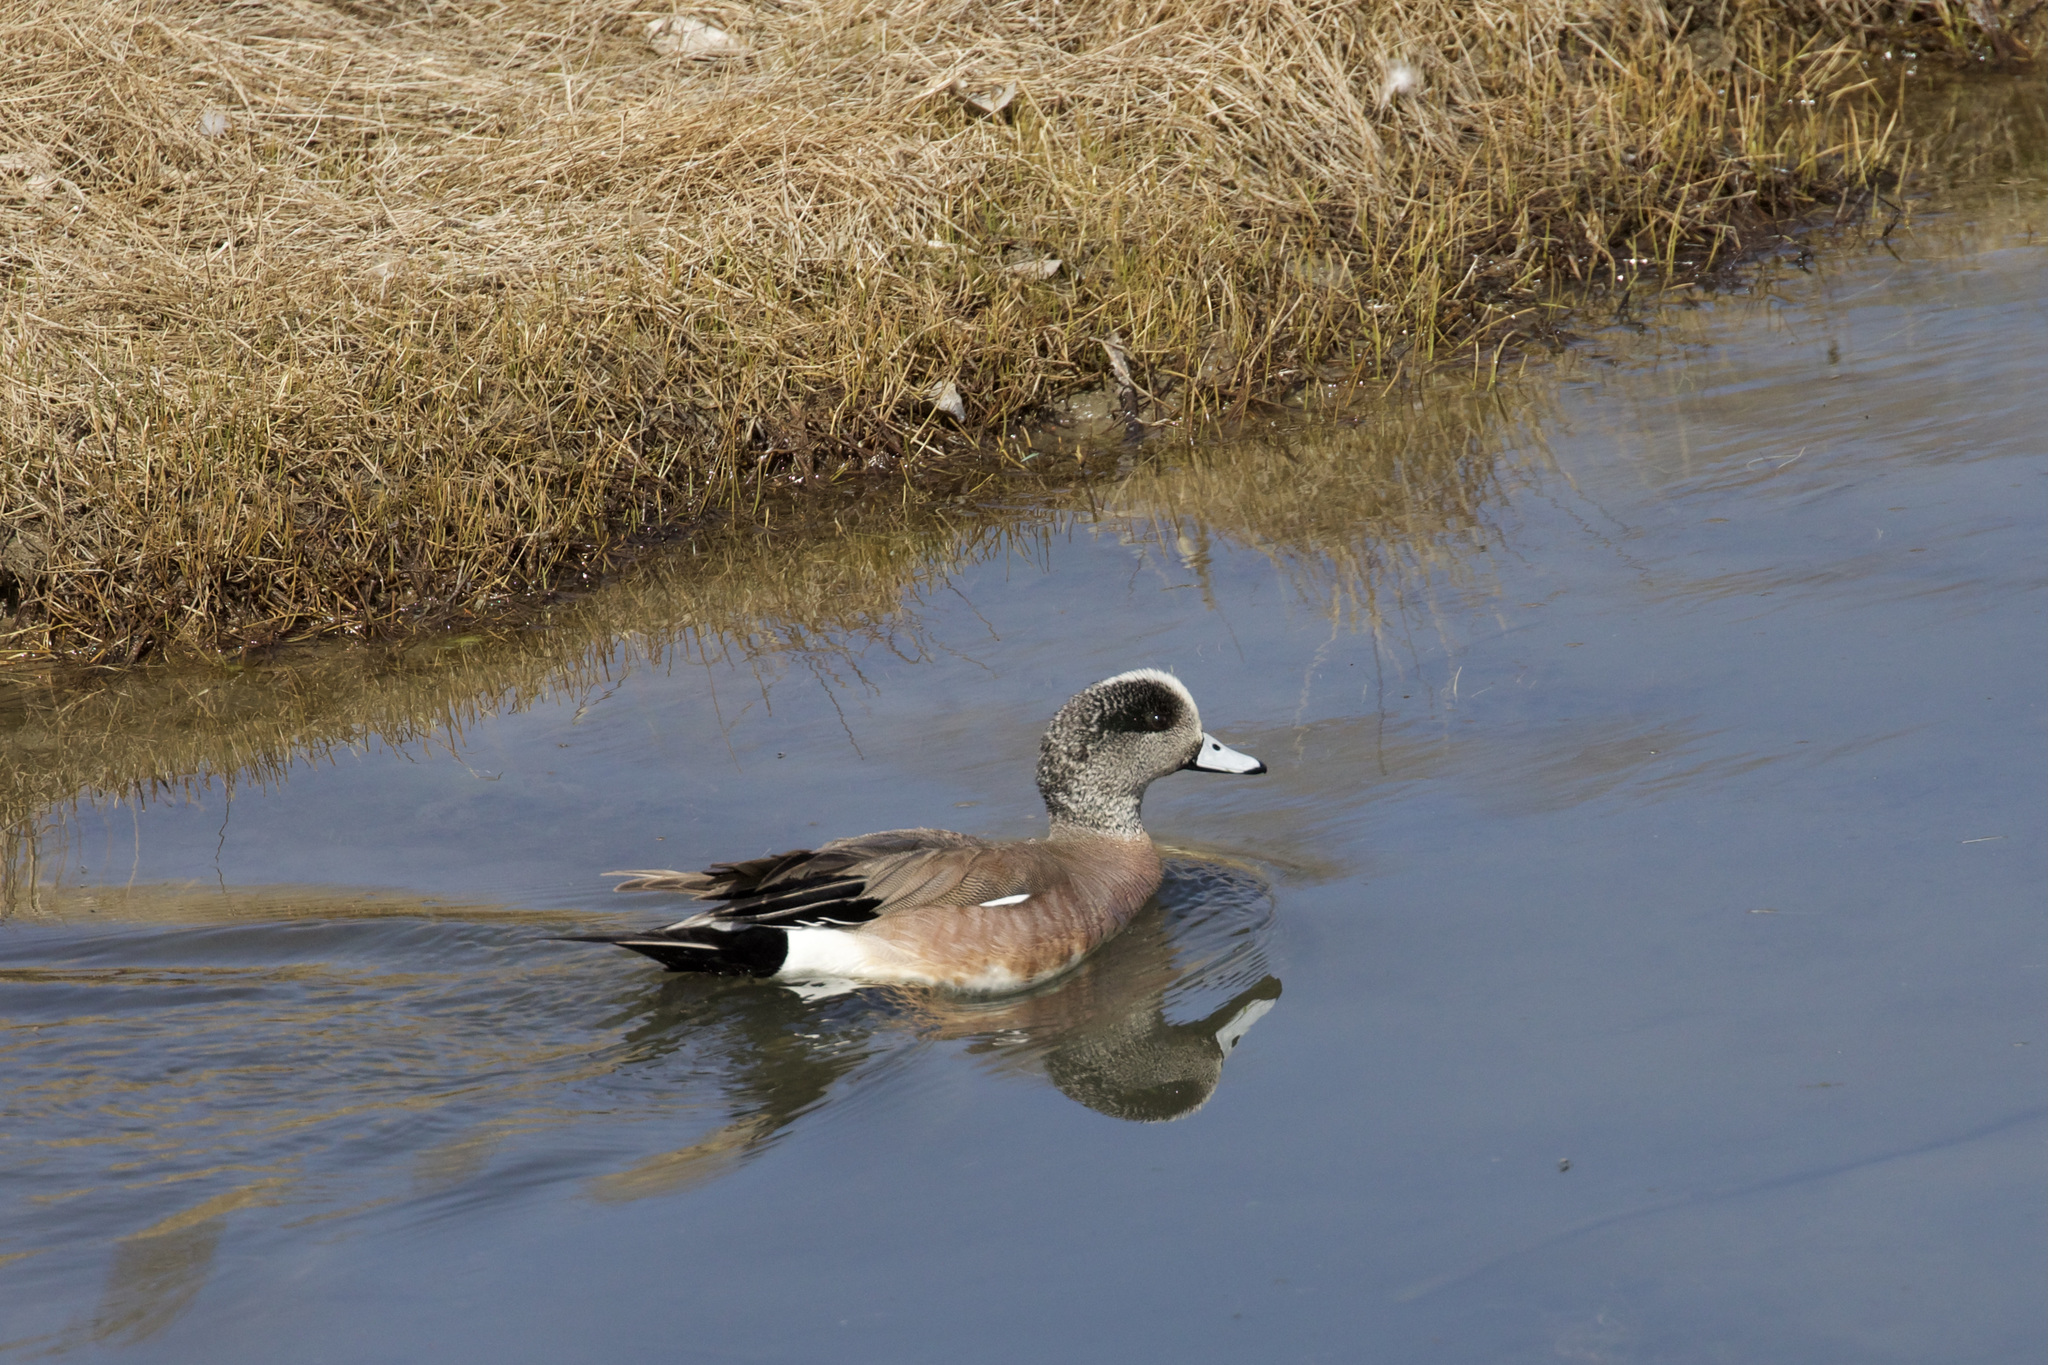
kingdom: Animalia
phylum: Chordata
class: Aves
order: Anseriformes
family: Anatidae
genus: Mareca
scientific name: Mareca americana
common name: American wigeon
